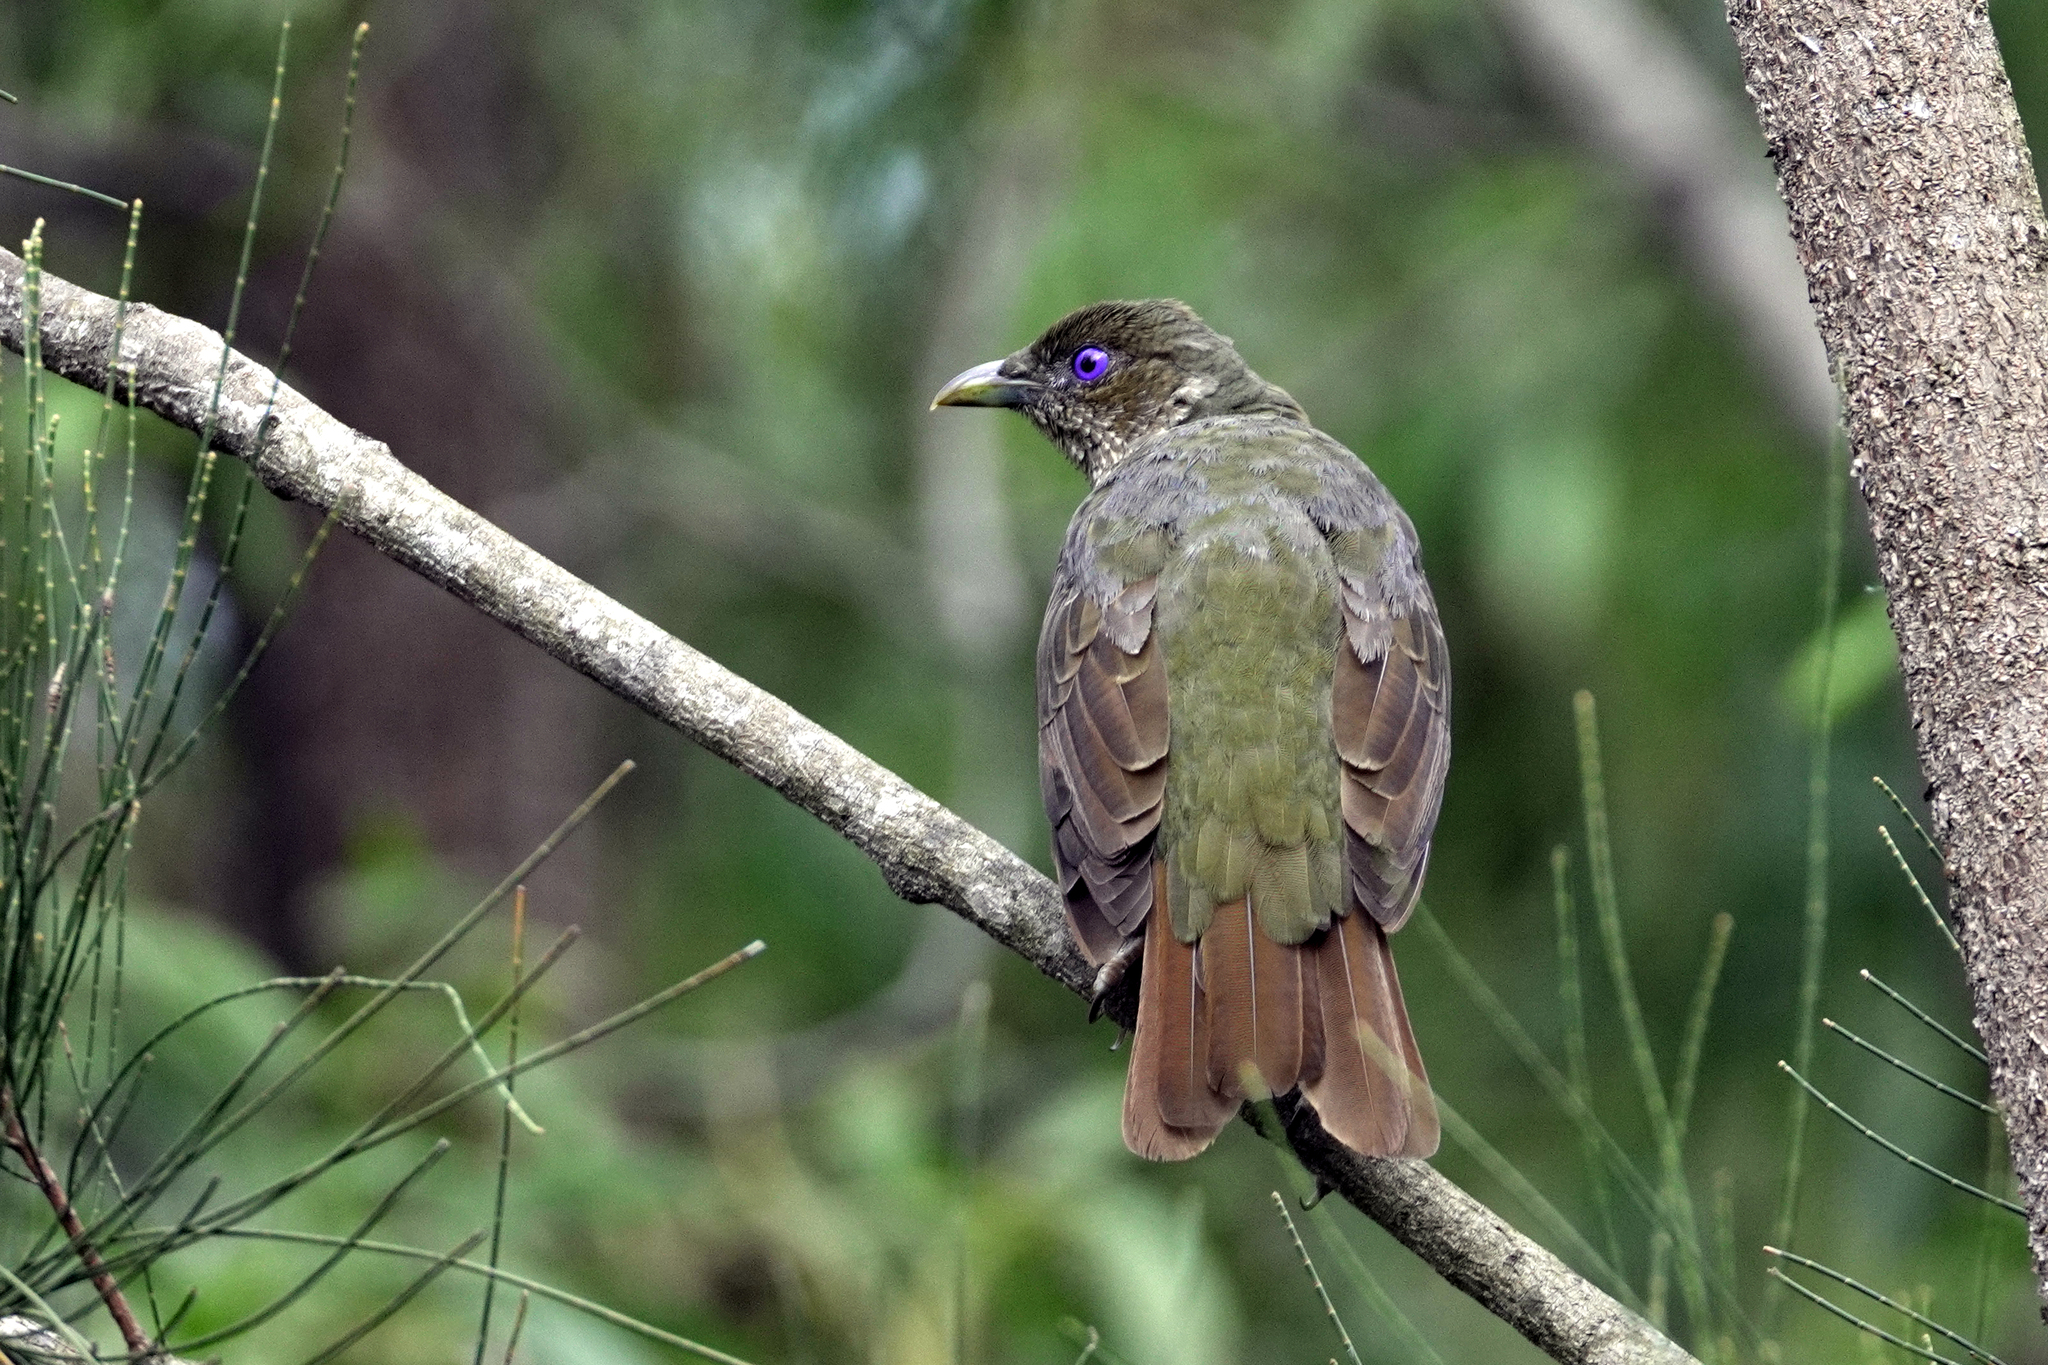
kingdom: Animalia
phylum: Chordata
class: Aves
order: Passeriformes
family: Ptilonorhynchidae
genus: Ptilonorhynchus
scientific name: Ptilonorhynchus violaceus
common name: Satin bowerbird
